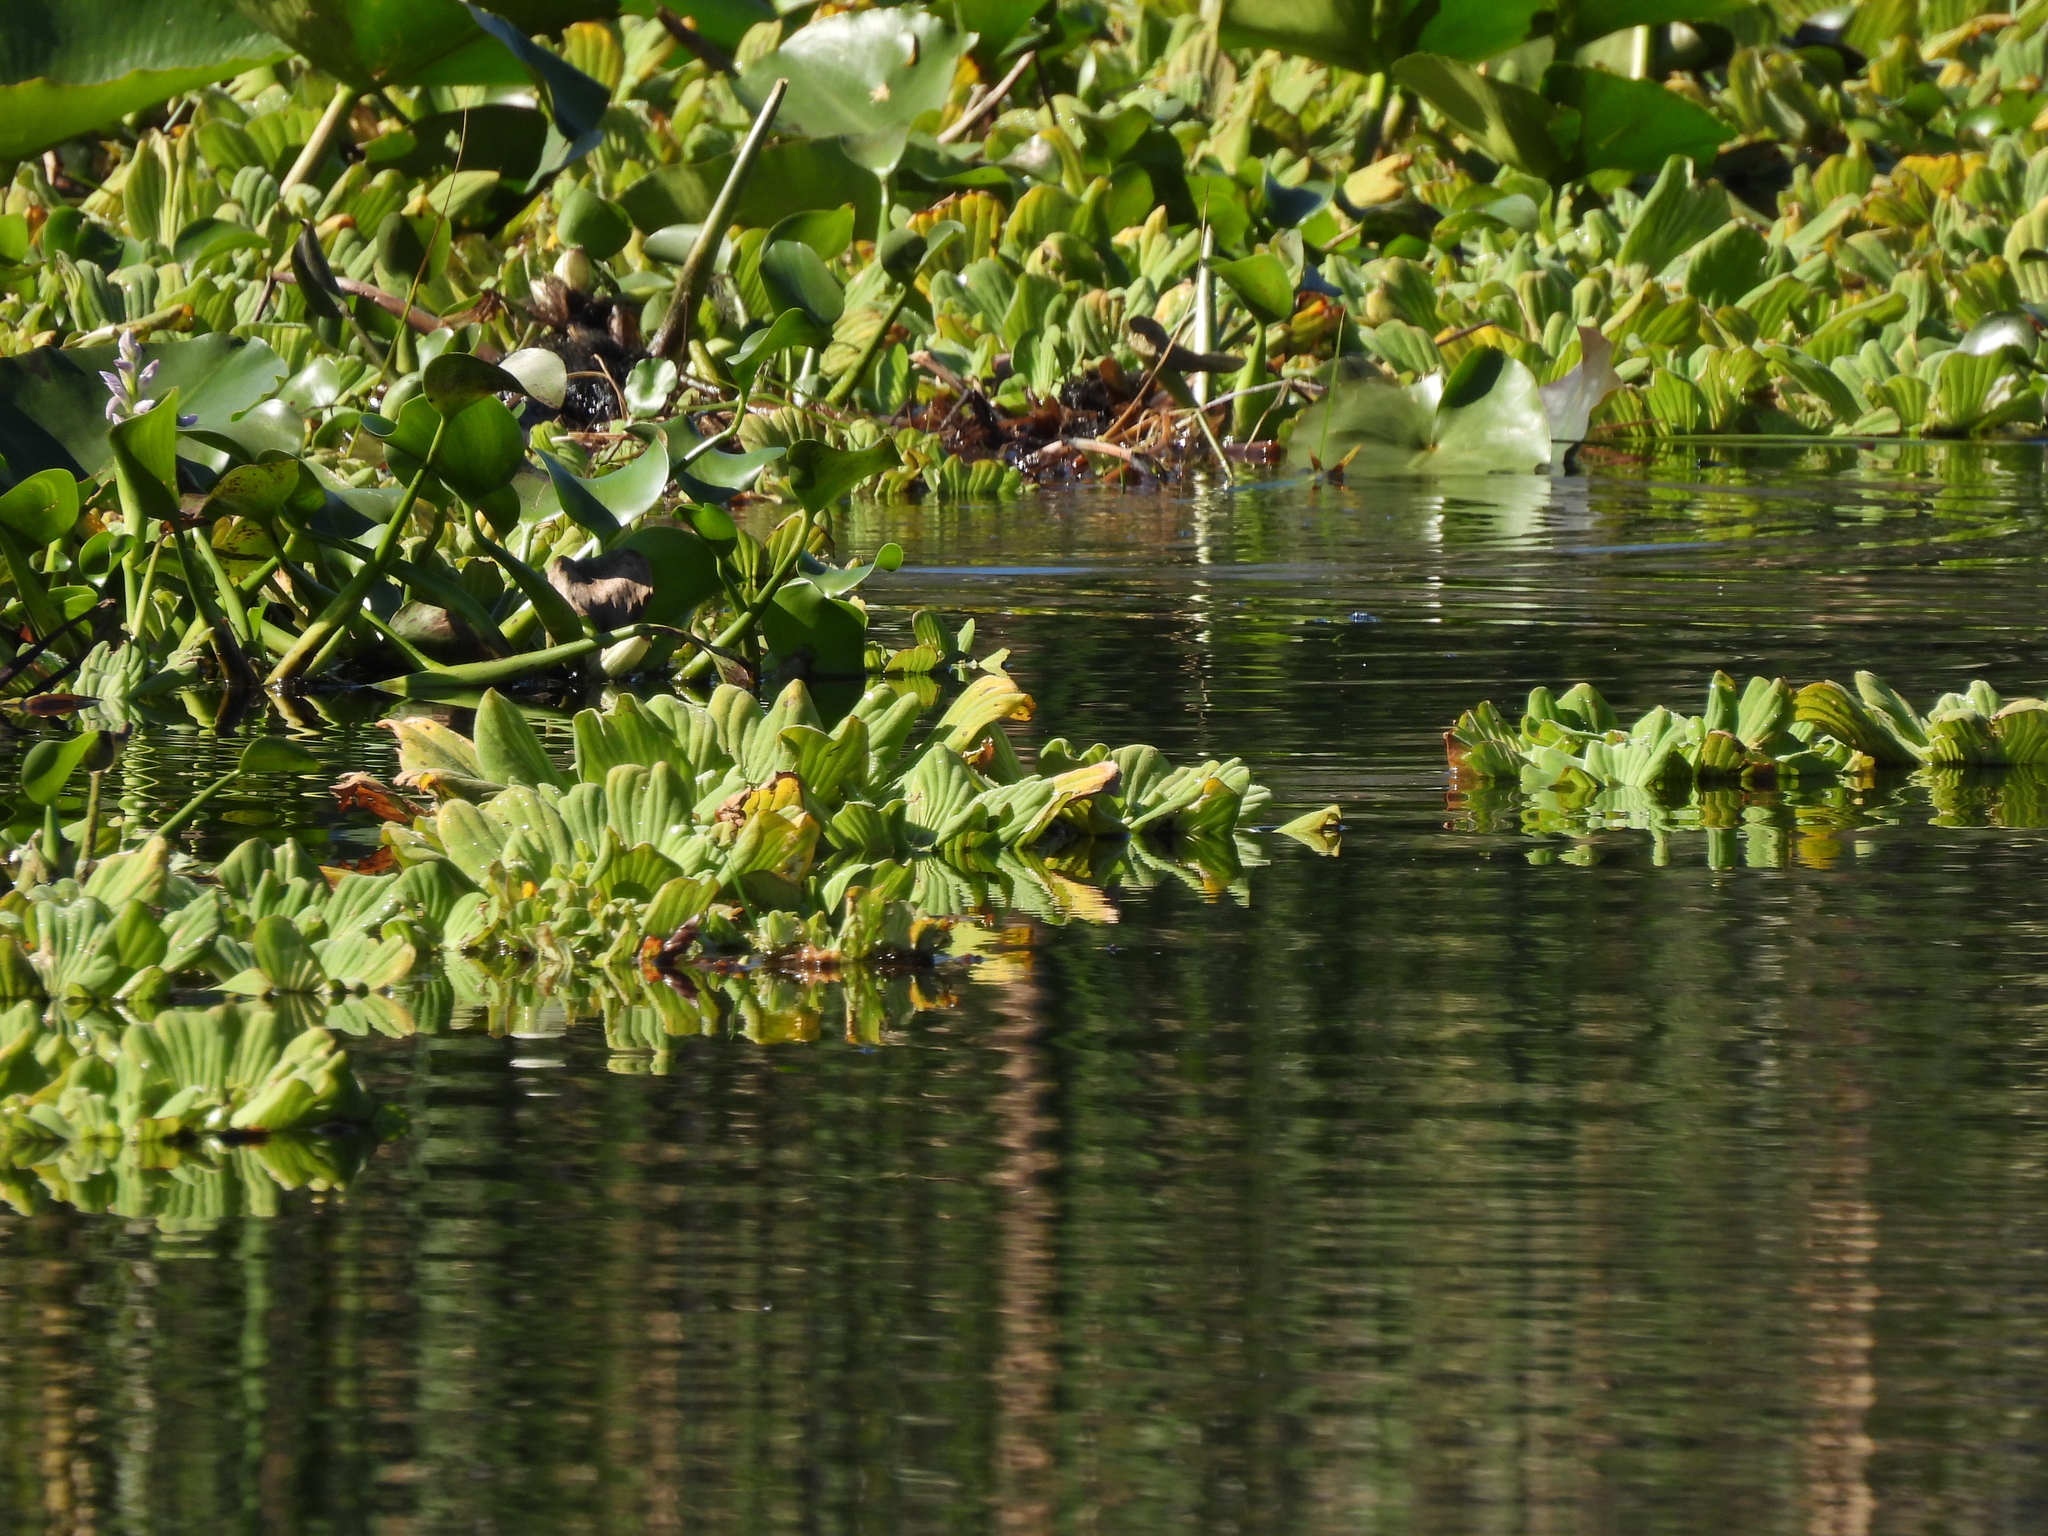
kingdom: Plantae
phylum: Tracheophyta
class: Liliopsida
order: Alismatales
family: Araceae
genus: Pistia
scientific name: Pistia stratiotes
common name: Water lettuce
